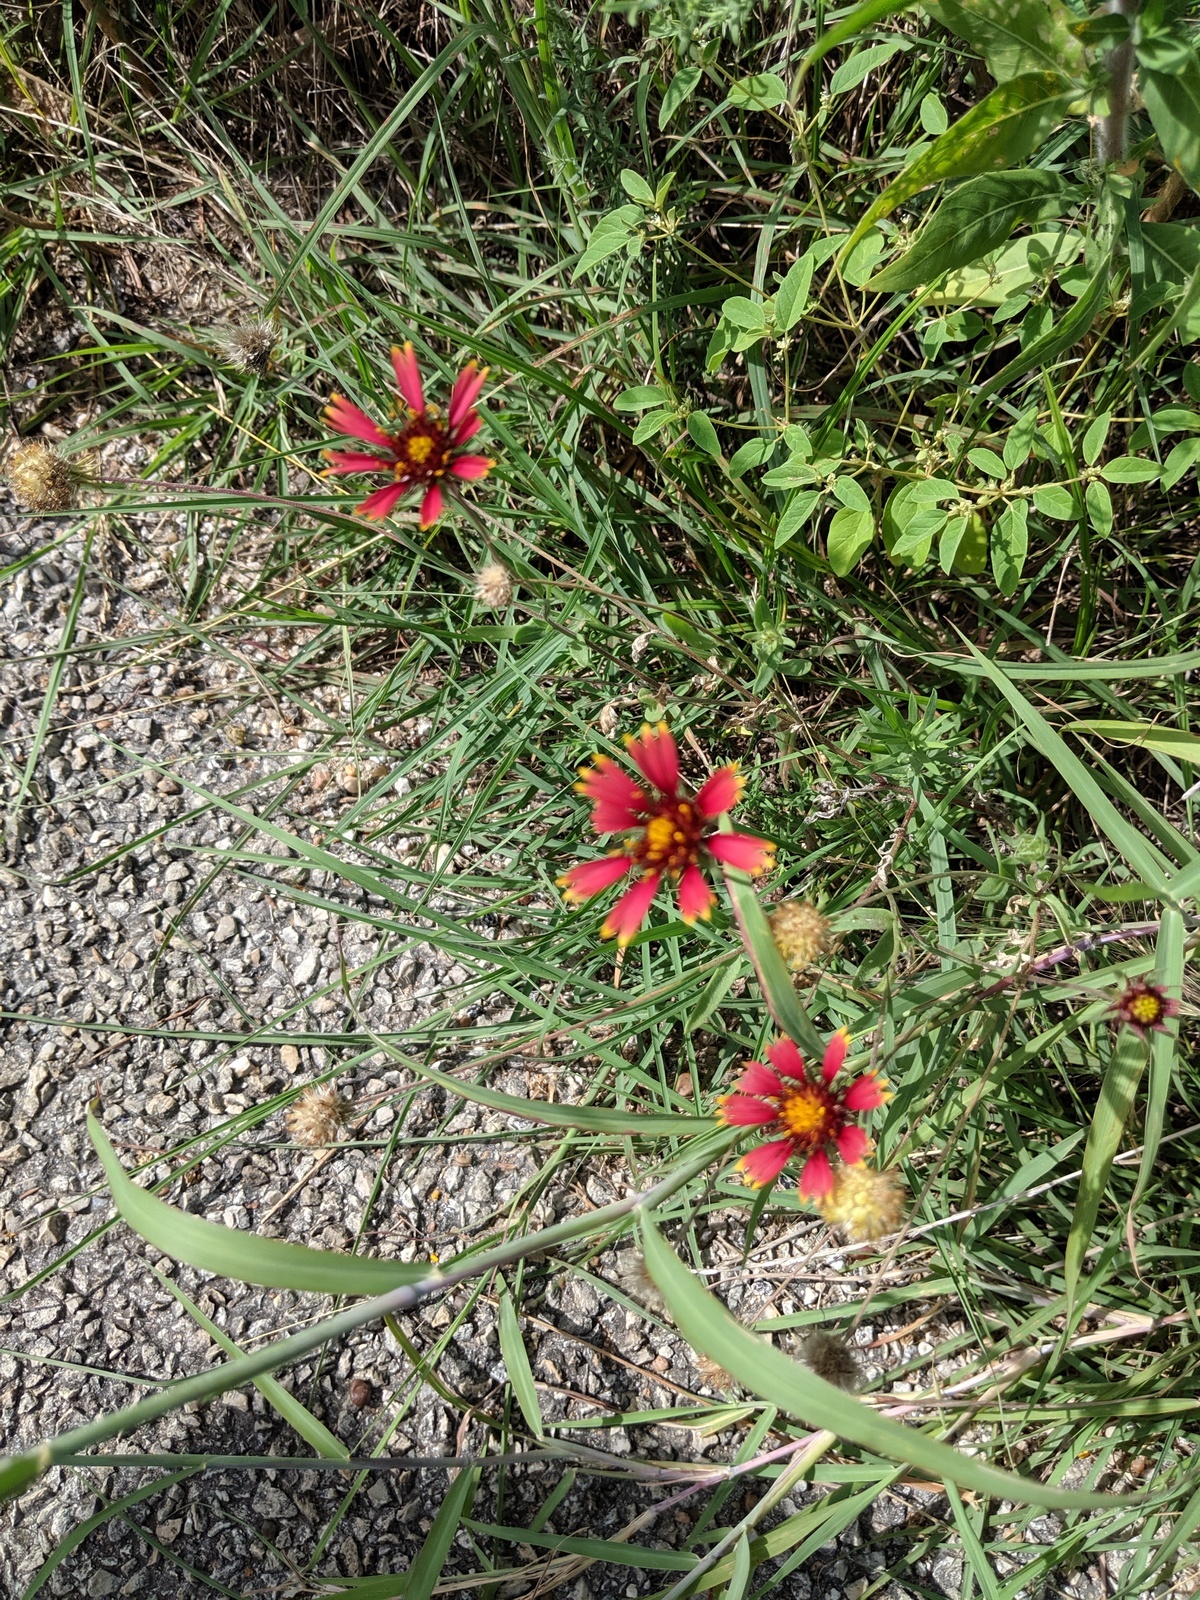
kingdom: Plantae
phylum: Tracheophyta
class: Magnoliopsida
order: Asterales
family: Asteraceae
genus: Gaillardia
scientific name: Gaillardia pulchella
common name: Firewheel
